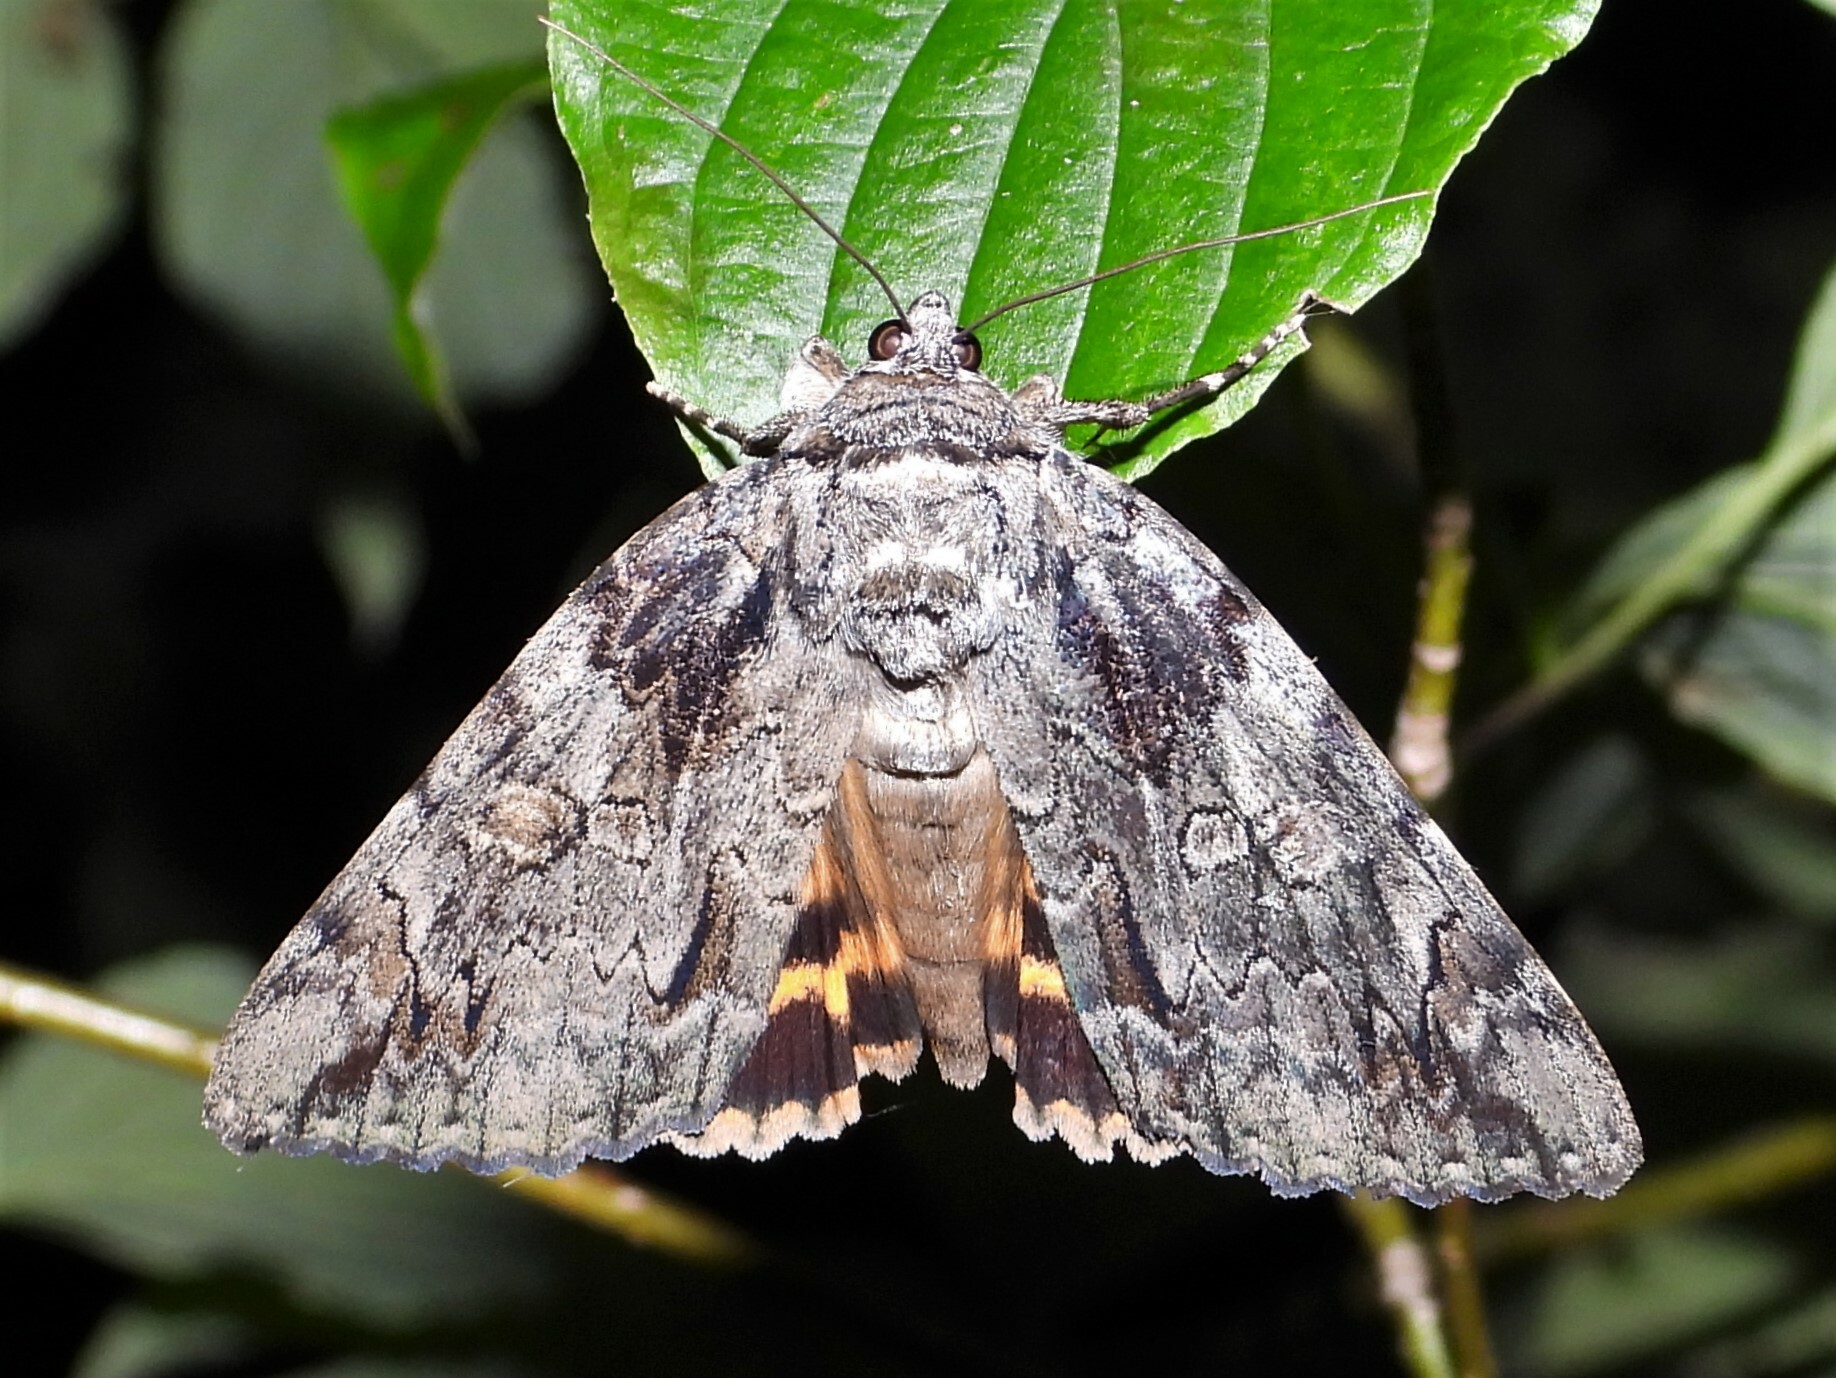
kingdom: Animalia
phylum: Arthropoda
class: Insecta
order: Lepidoptera
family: Erebidae
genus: Catocala
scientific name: Catocala neogama
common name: Bride underwing
